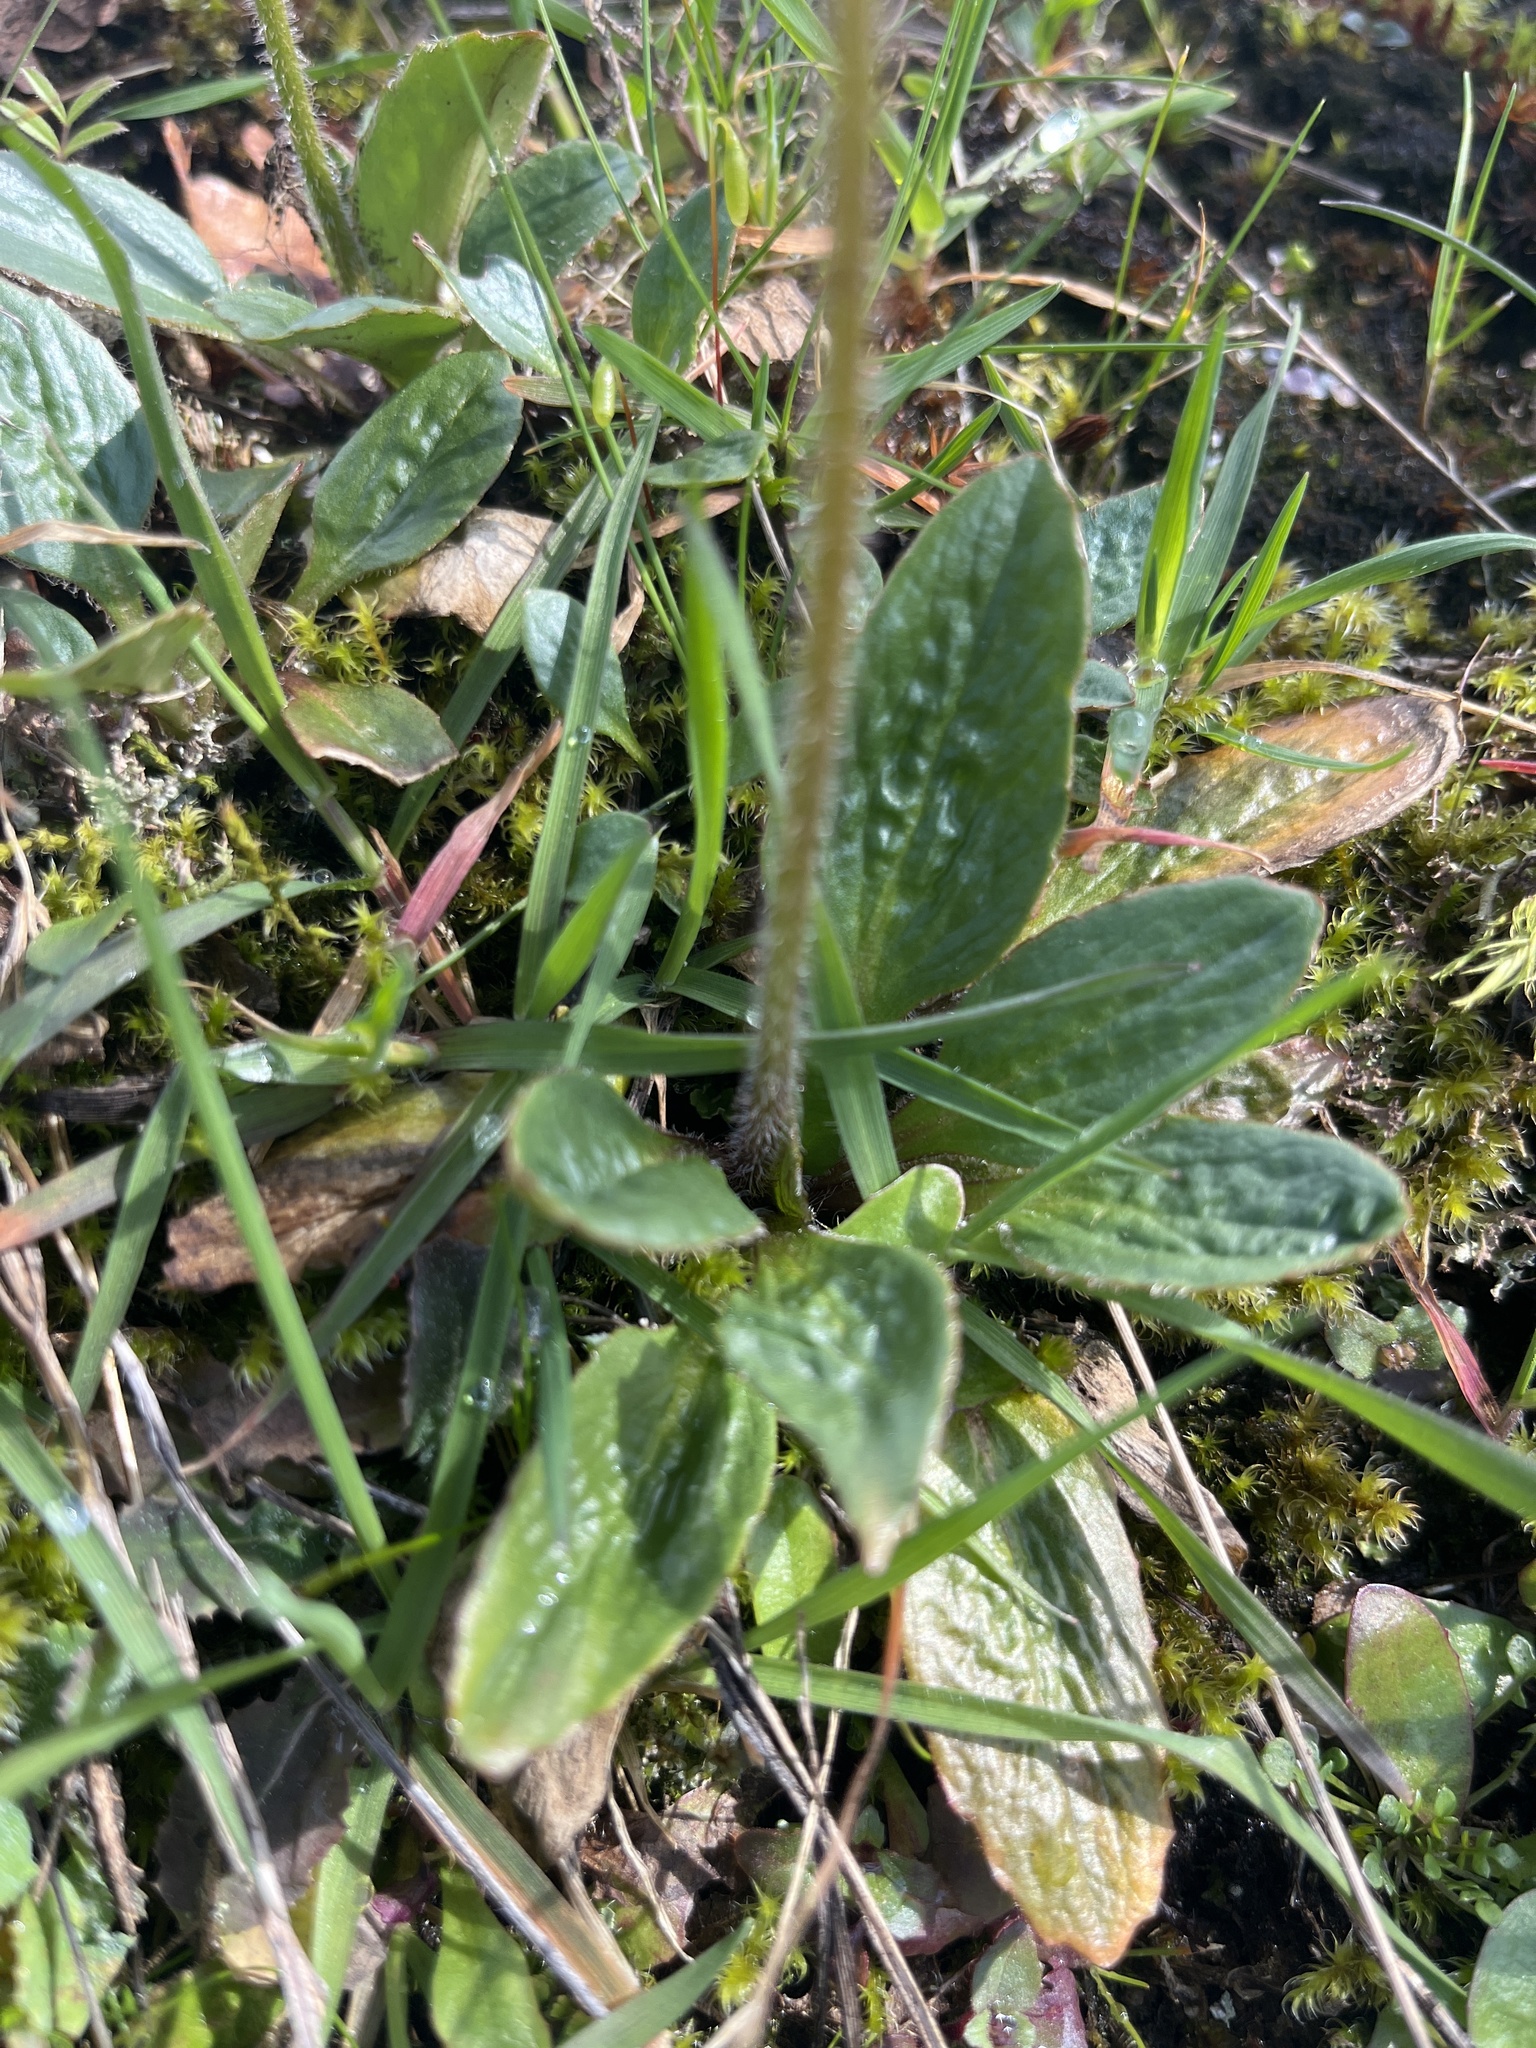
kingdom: Plantae
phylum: Tracheophyta
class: Magnoliopsida
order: Saxifragales
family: Saxifragaceae
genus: Micranthes
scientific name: Micranthes integrifolia
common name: Wholeleaf saxifrage
